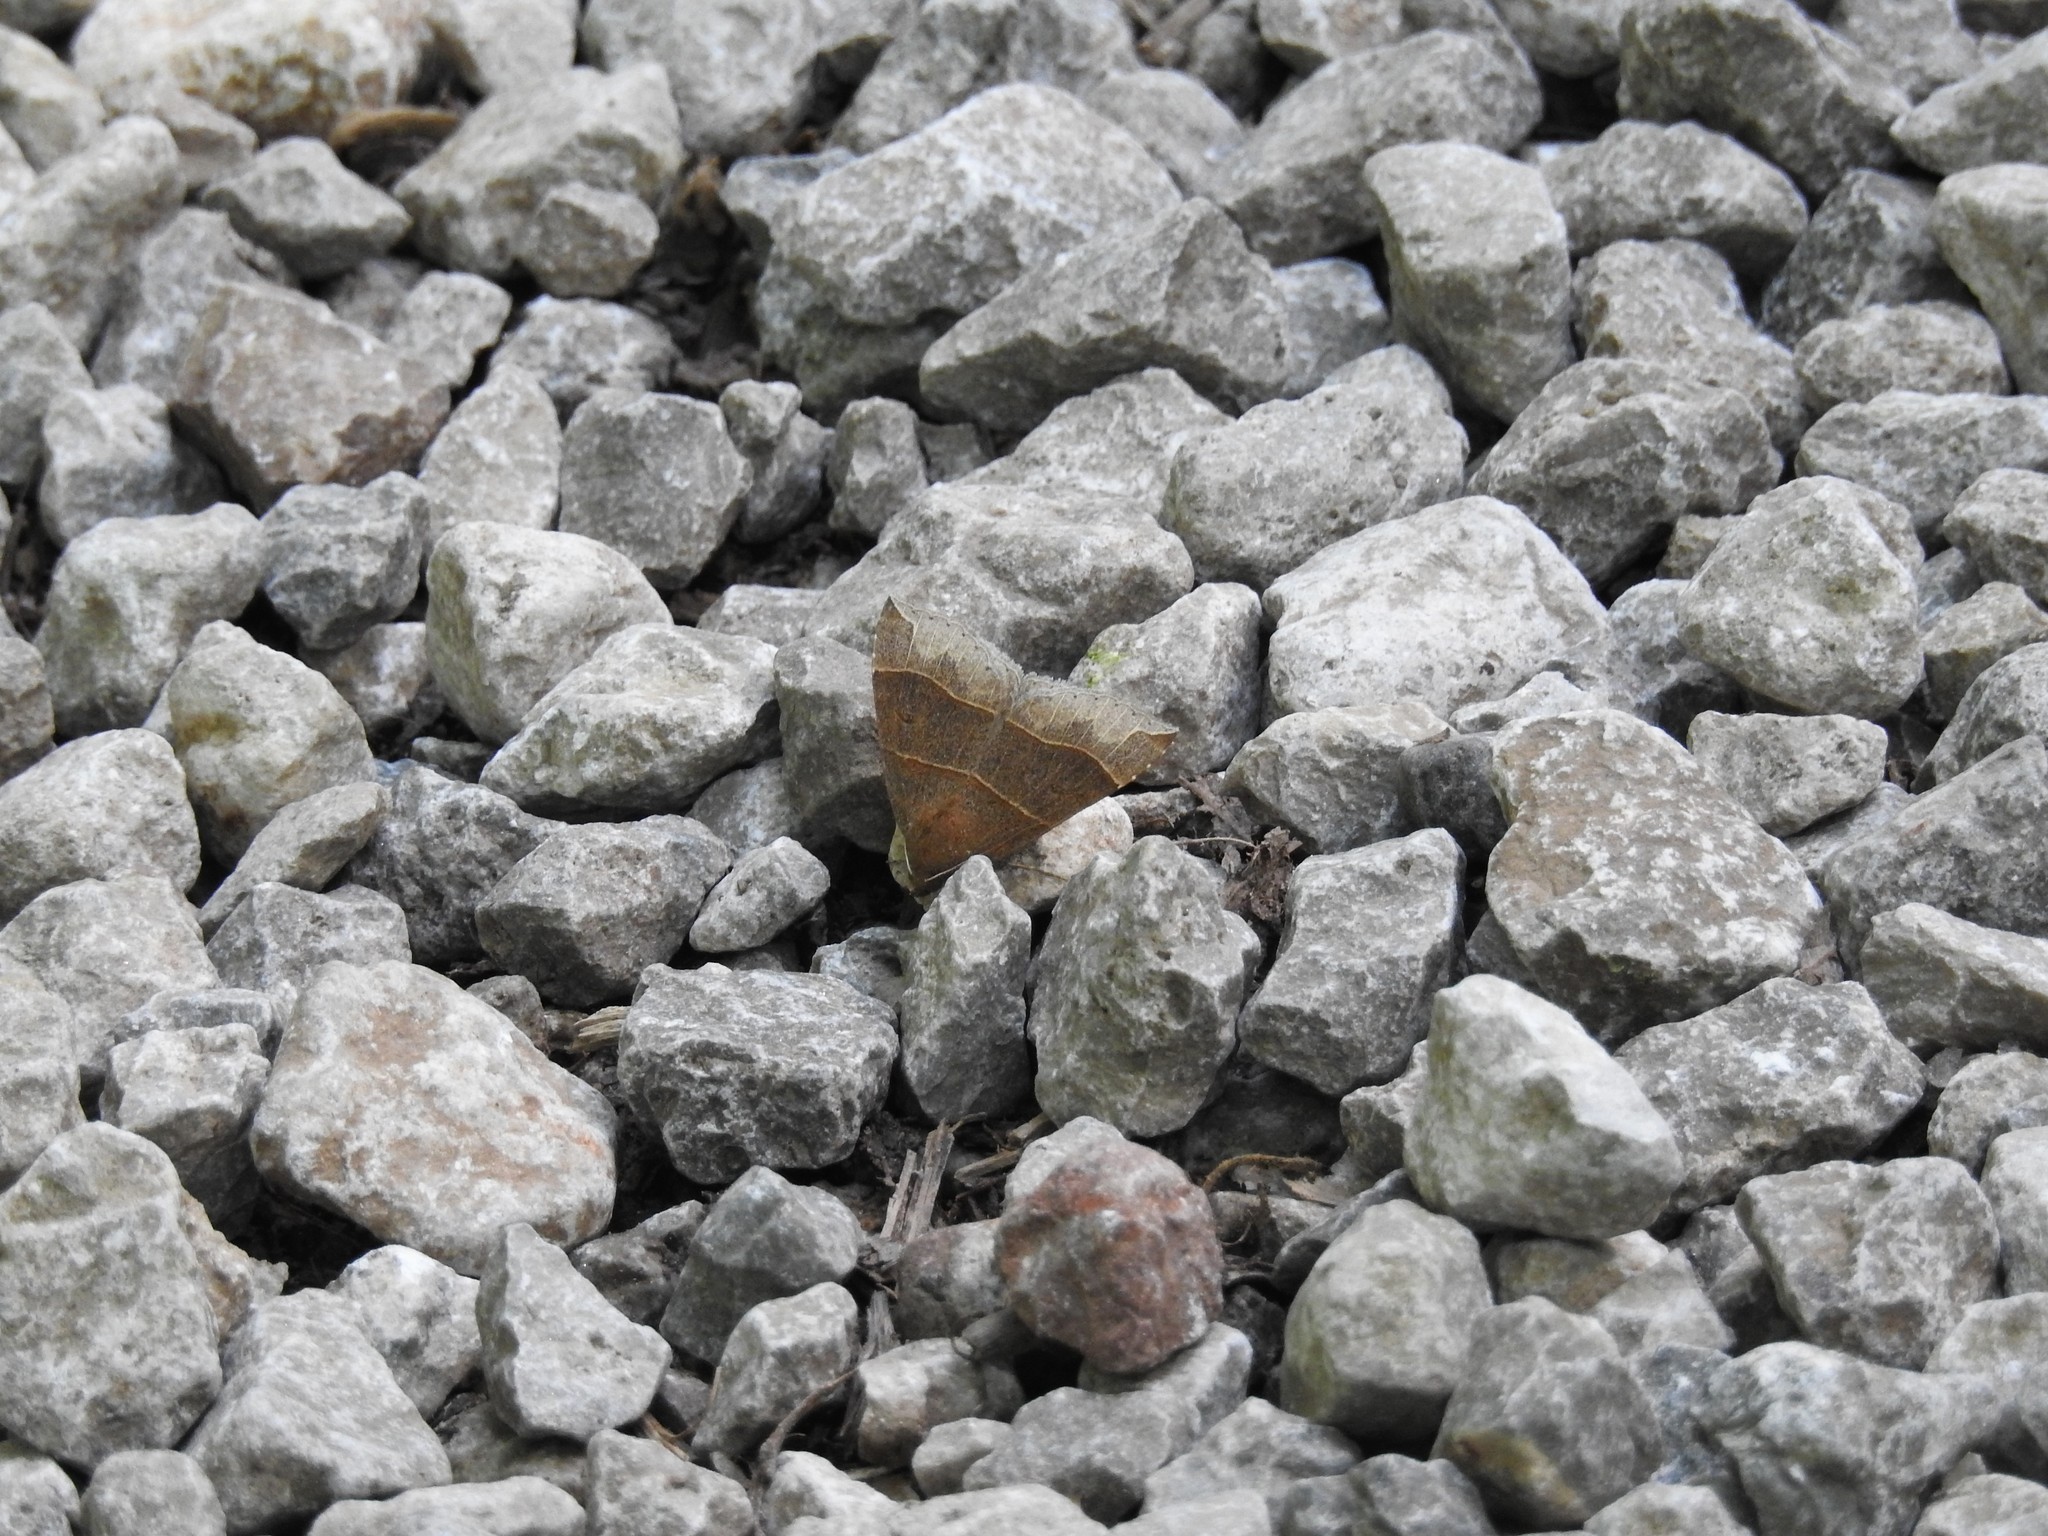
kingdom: Animalia
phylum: Arthropoda
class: Insecta
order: Lepidoptera
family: Erebidae
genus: Parallelia
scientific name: Parallelia bistriaris
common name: Maple looper moth
